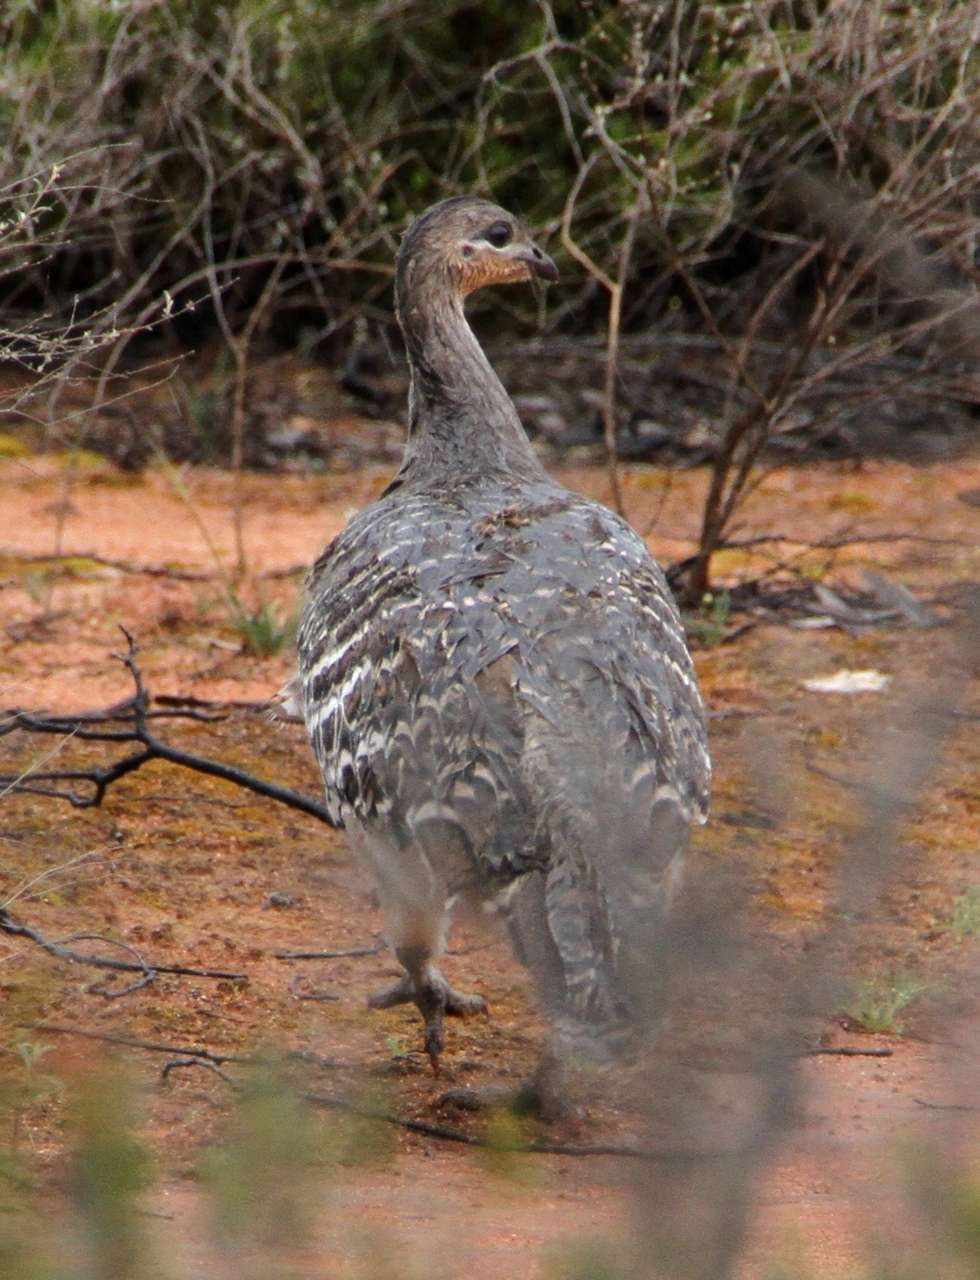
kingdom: Animalia
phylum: Chordata
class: Aves
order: Galliformes
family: Megapodiidae
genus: Leipoa
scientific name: Leipoa ocellata
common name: Malleefowl
